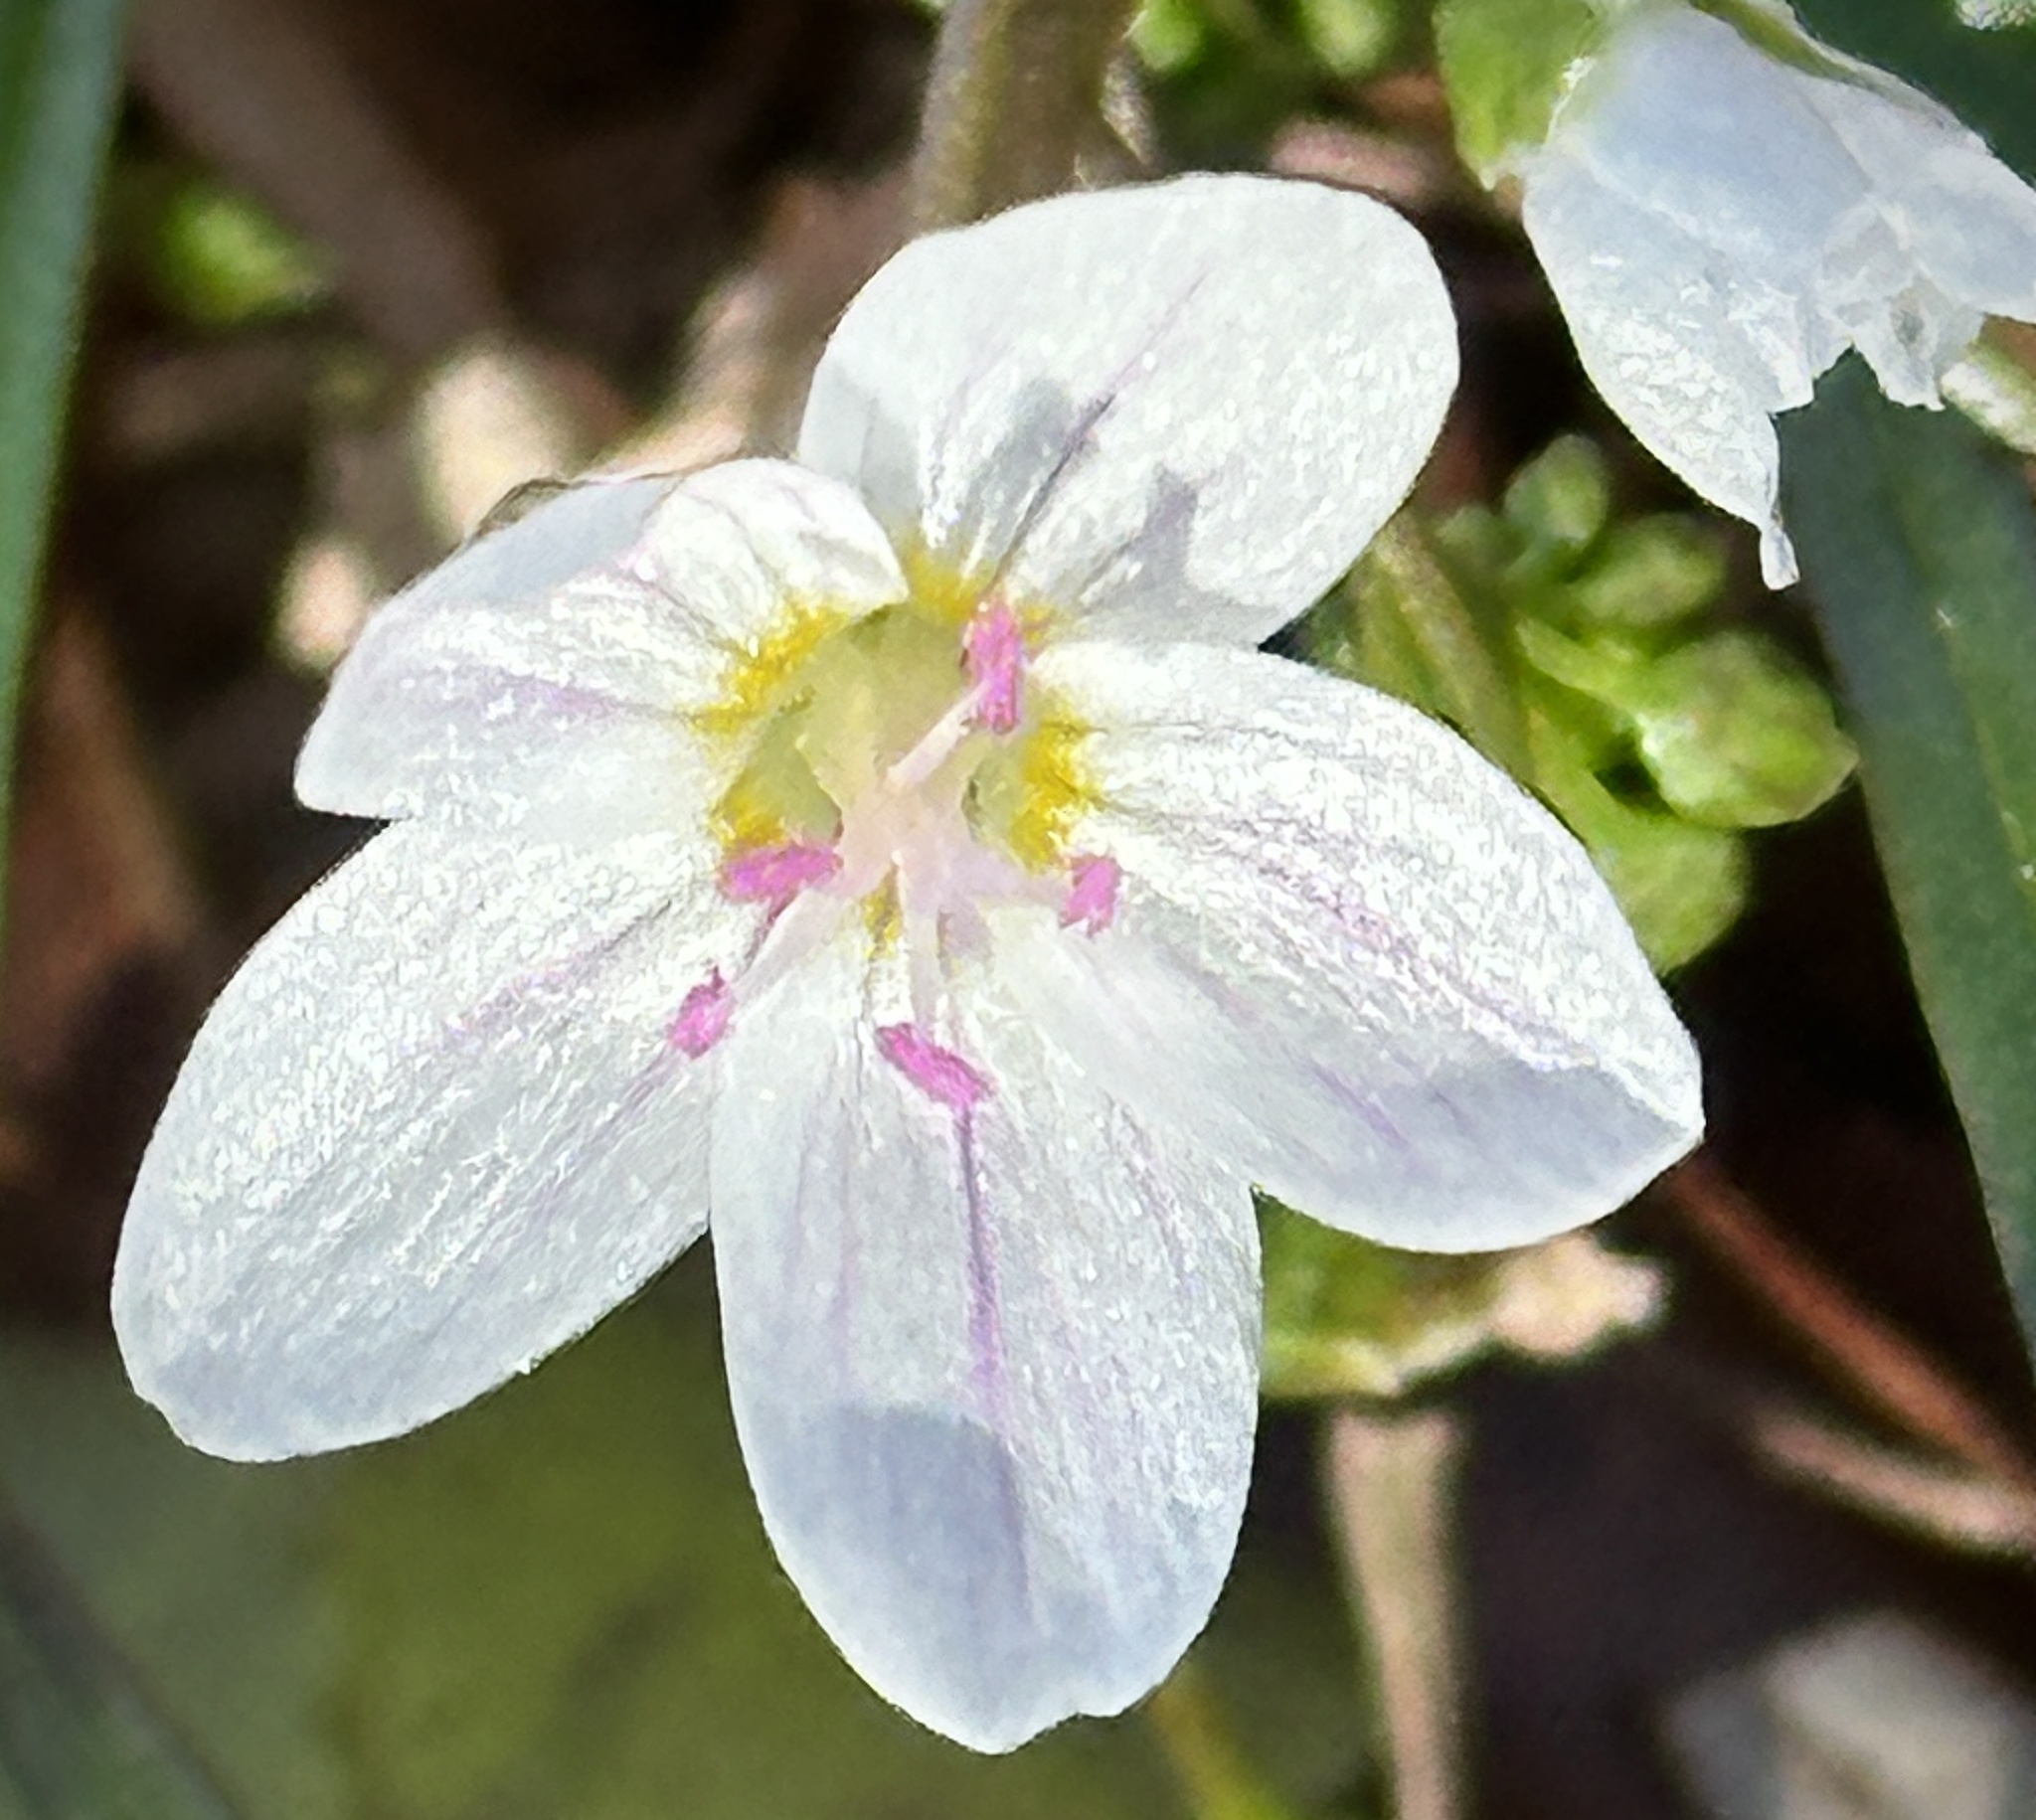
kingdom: Plantae
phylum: Tracheophyta
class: Magnoliopsida
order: Caryophyllales
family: Montiaceae
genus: Claytonia
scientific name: Claytonia virginica
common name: Virginia springbeauty
